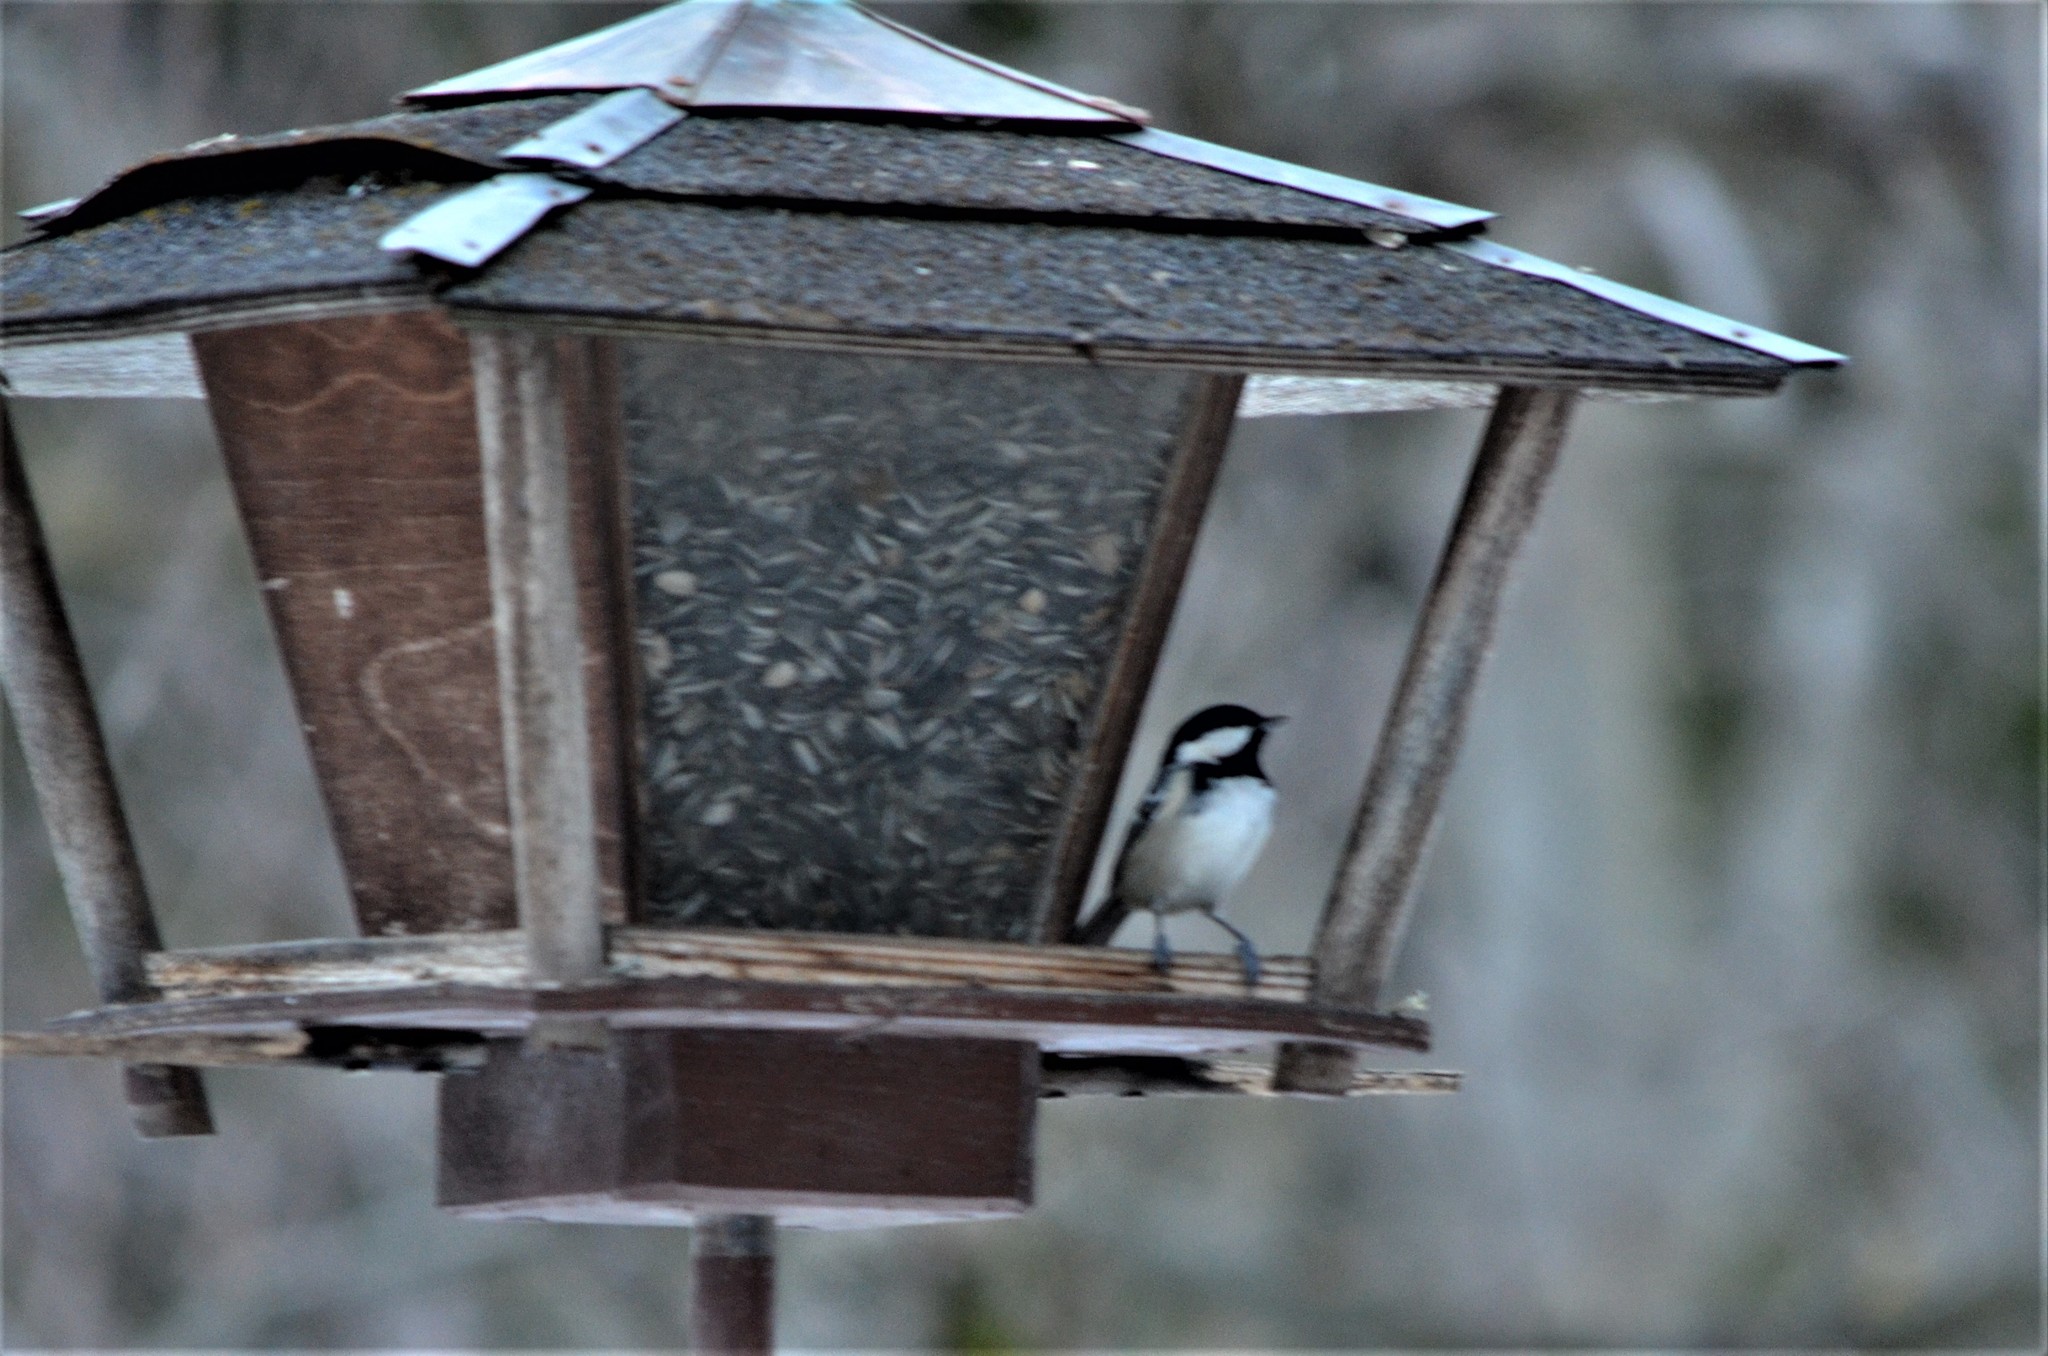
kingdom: Animalia
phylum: Chordata
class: Aves
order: Passeriformes
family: Paridae
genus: Periparus
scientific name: Periparus ater
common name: Coal tit
